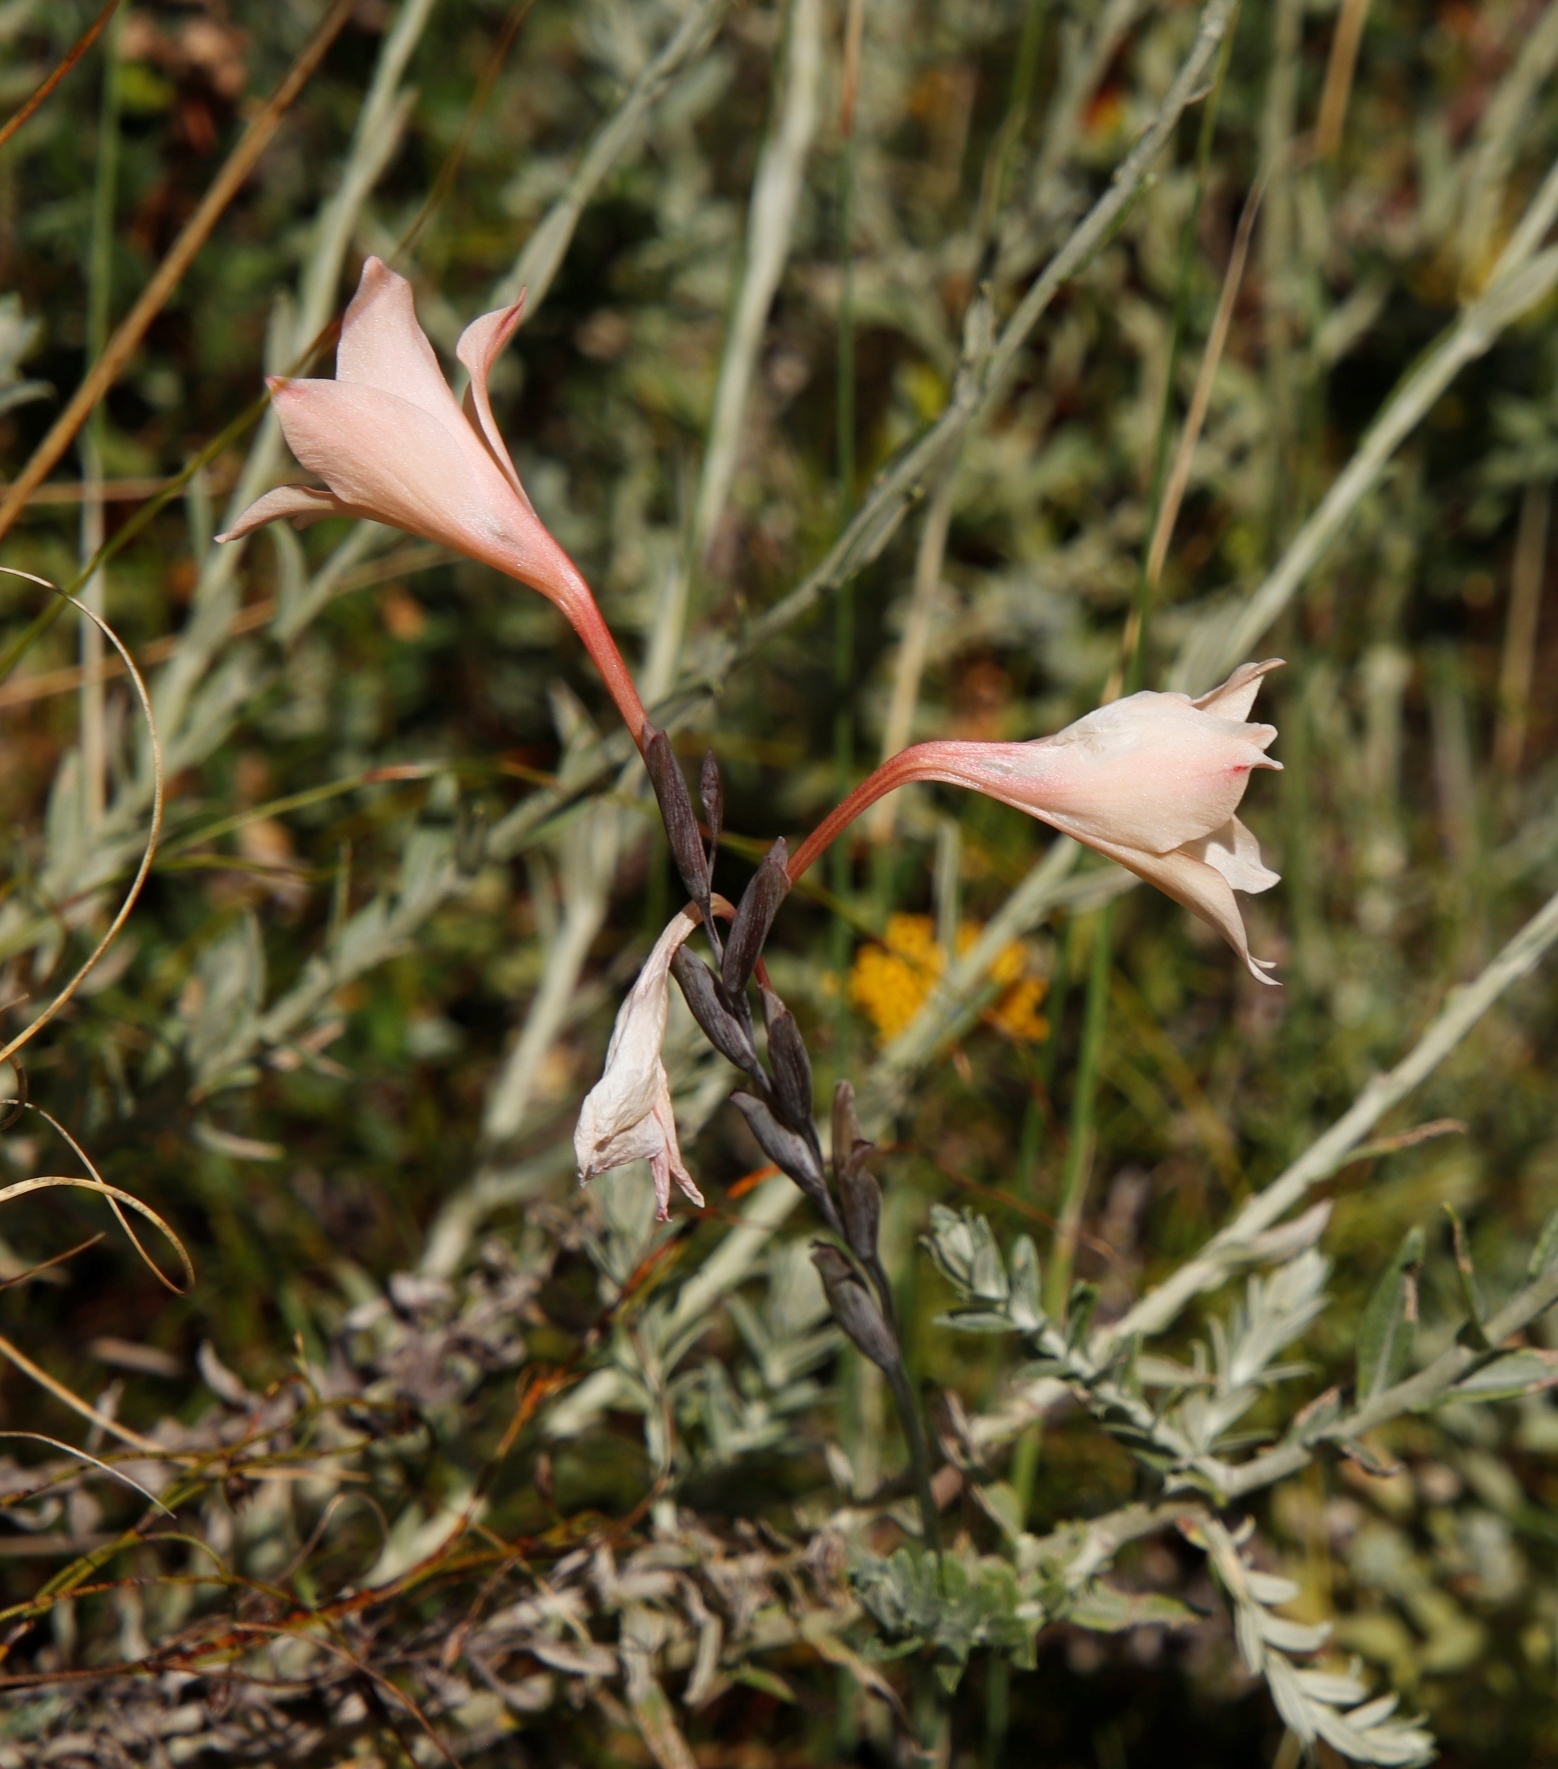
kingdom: Plantae
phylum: Tracheophyta
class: Liliopsida
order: Asparagales
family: Iridaceae
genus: Gladiolus
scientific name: Gladiolus monticola
